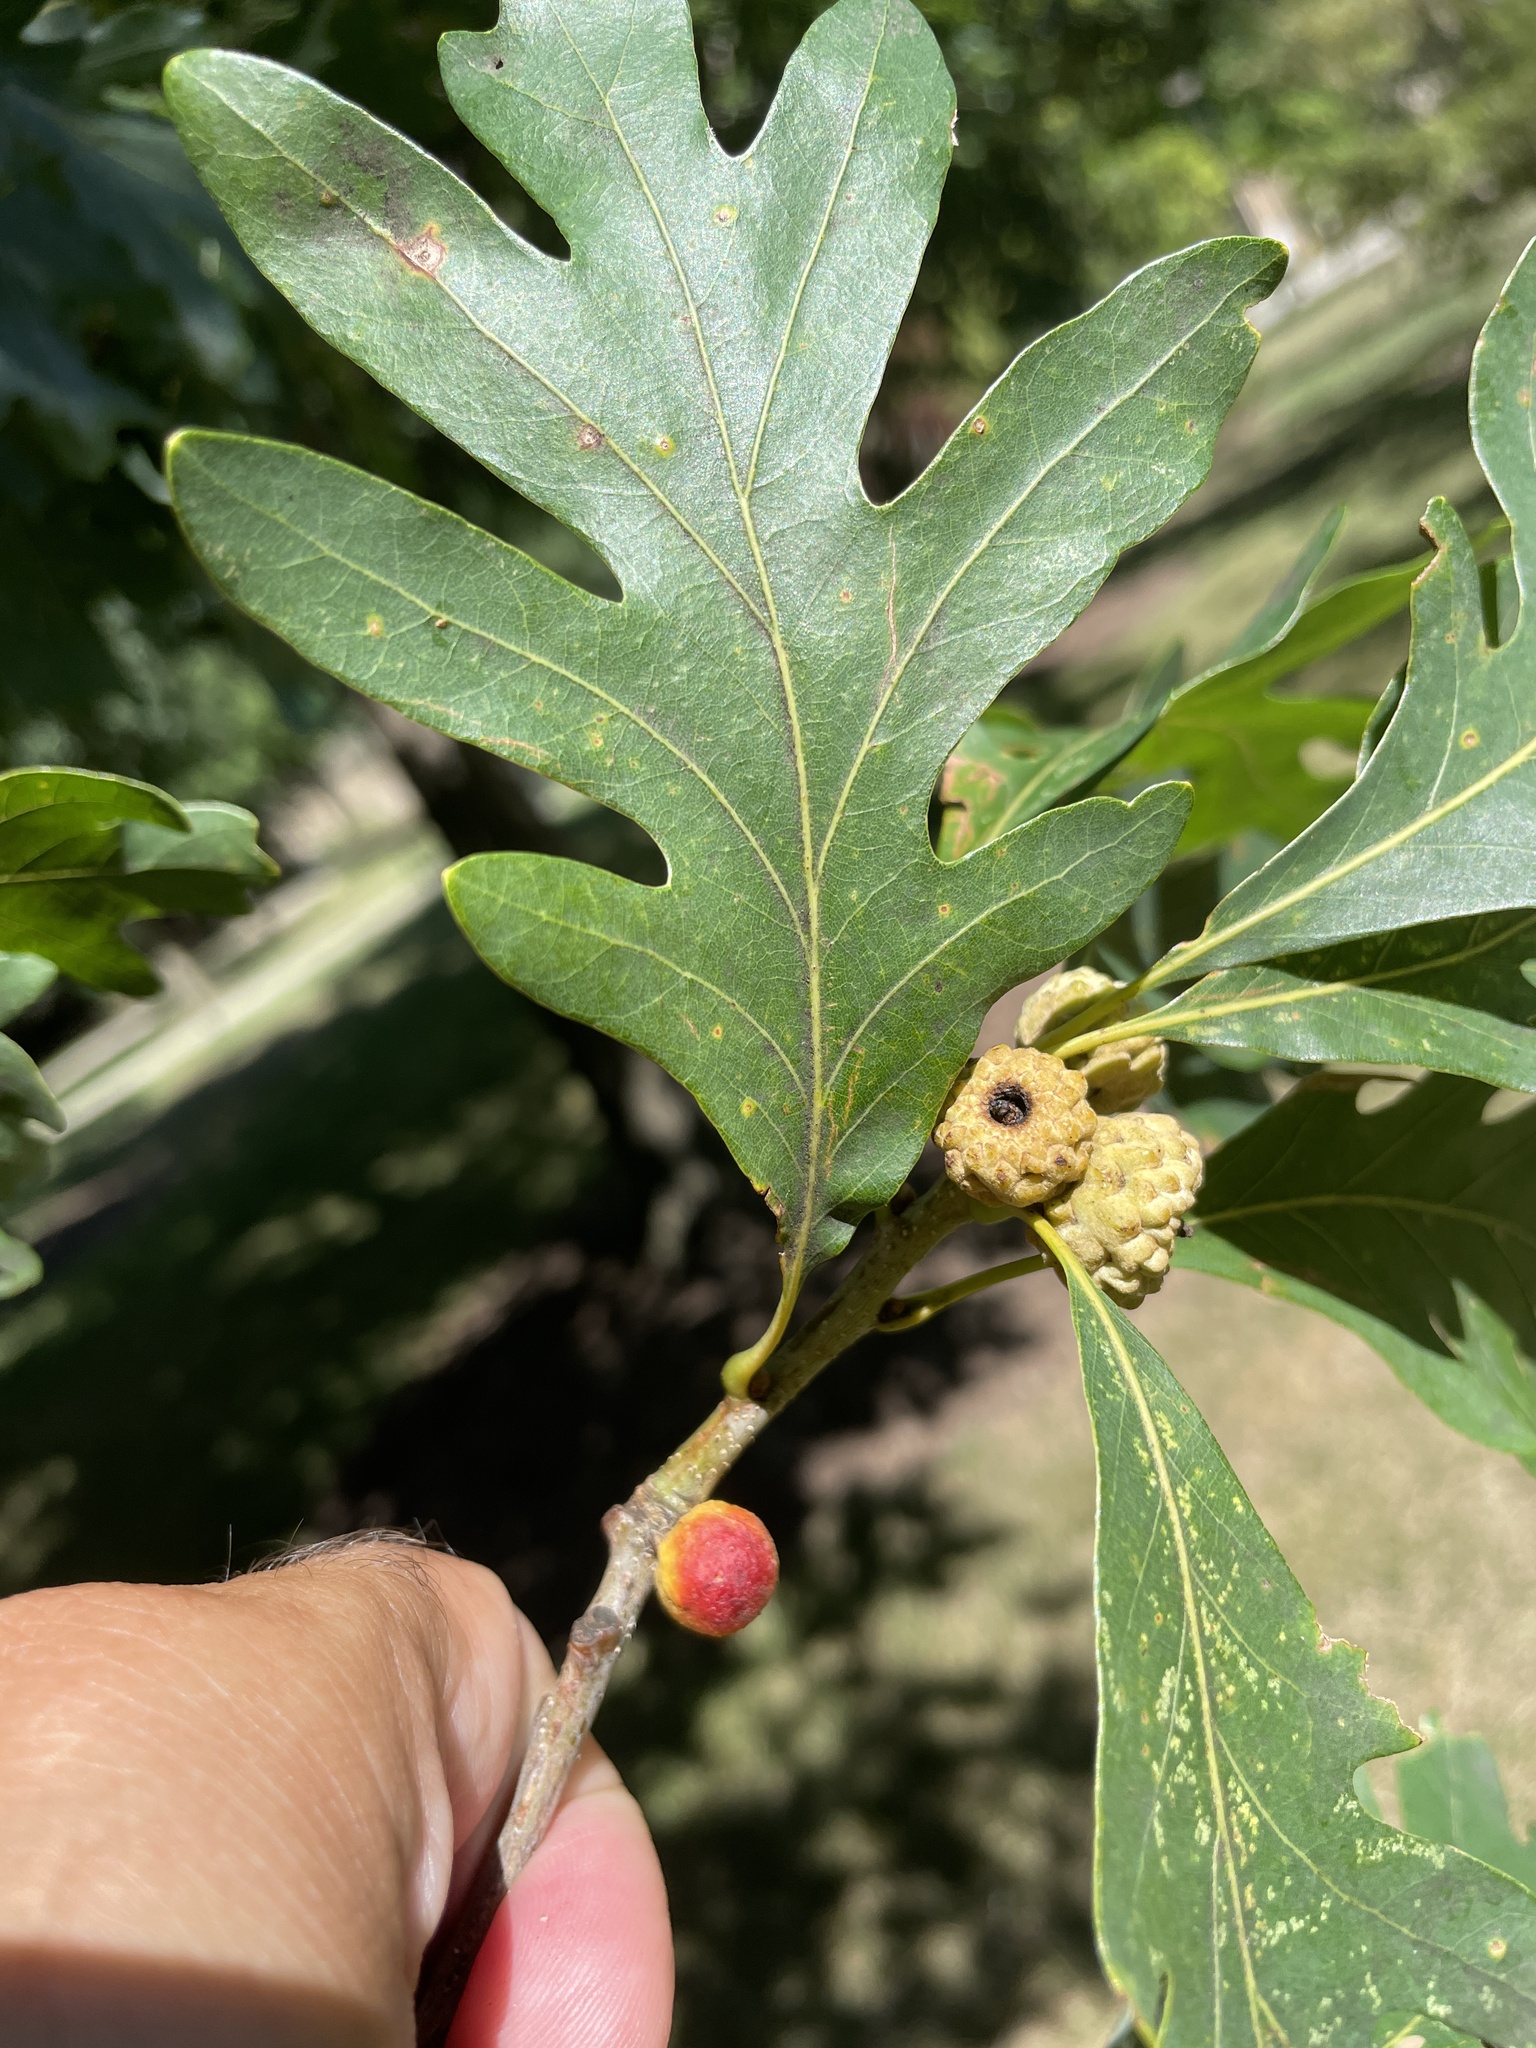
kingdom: Animalia
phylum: Arthropoda
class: Insecta
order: Hymenoptera
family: Cynipidae
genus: Disholcaspis
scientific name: Disholcaspis quercusglobulus
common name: Round bullet gall wasp
